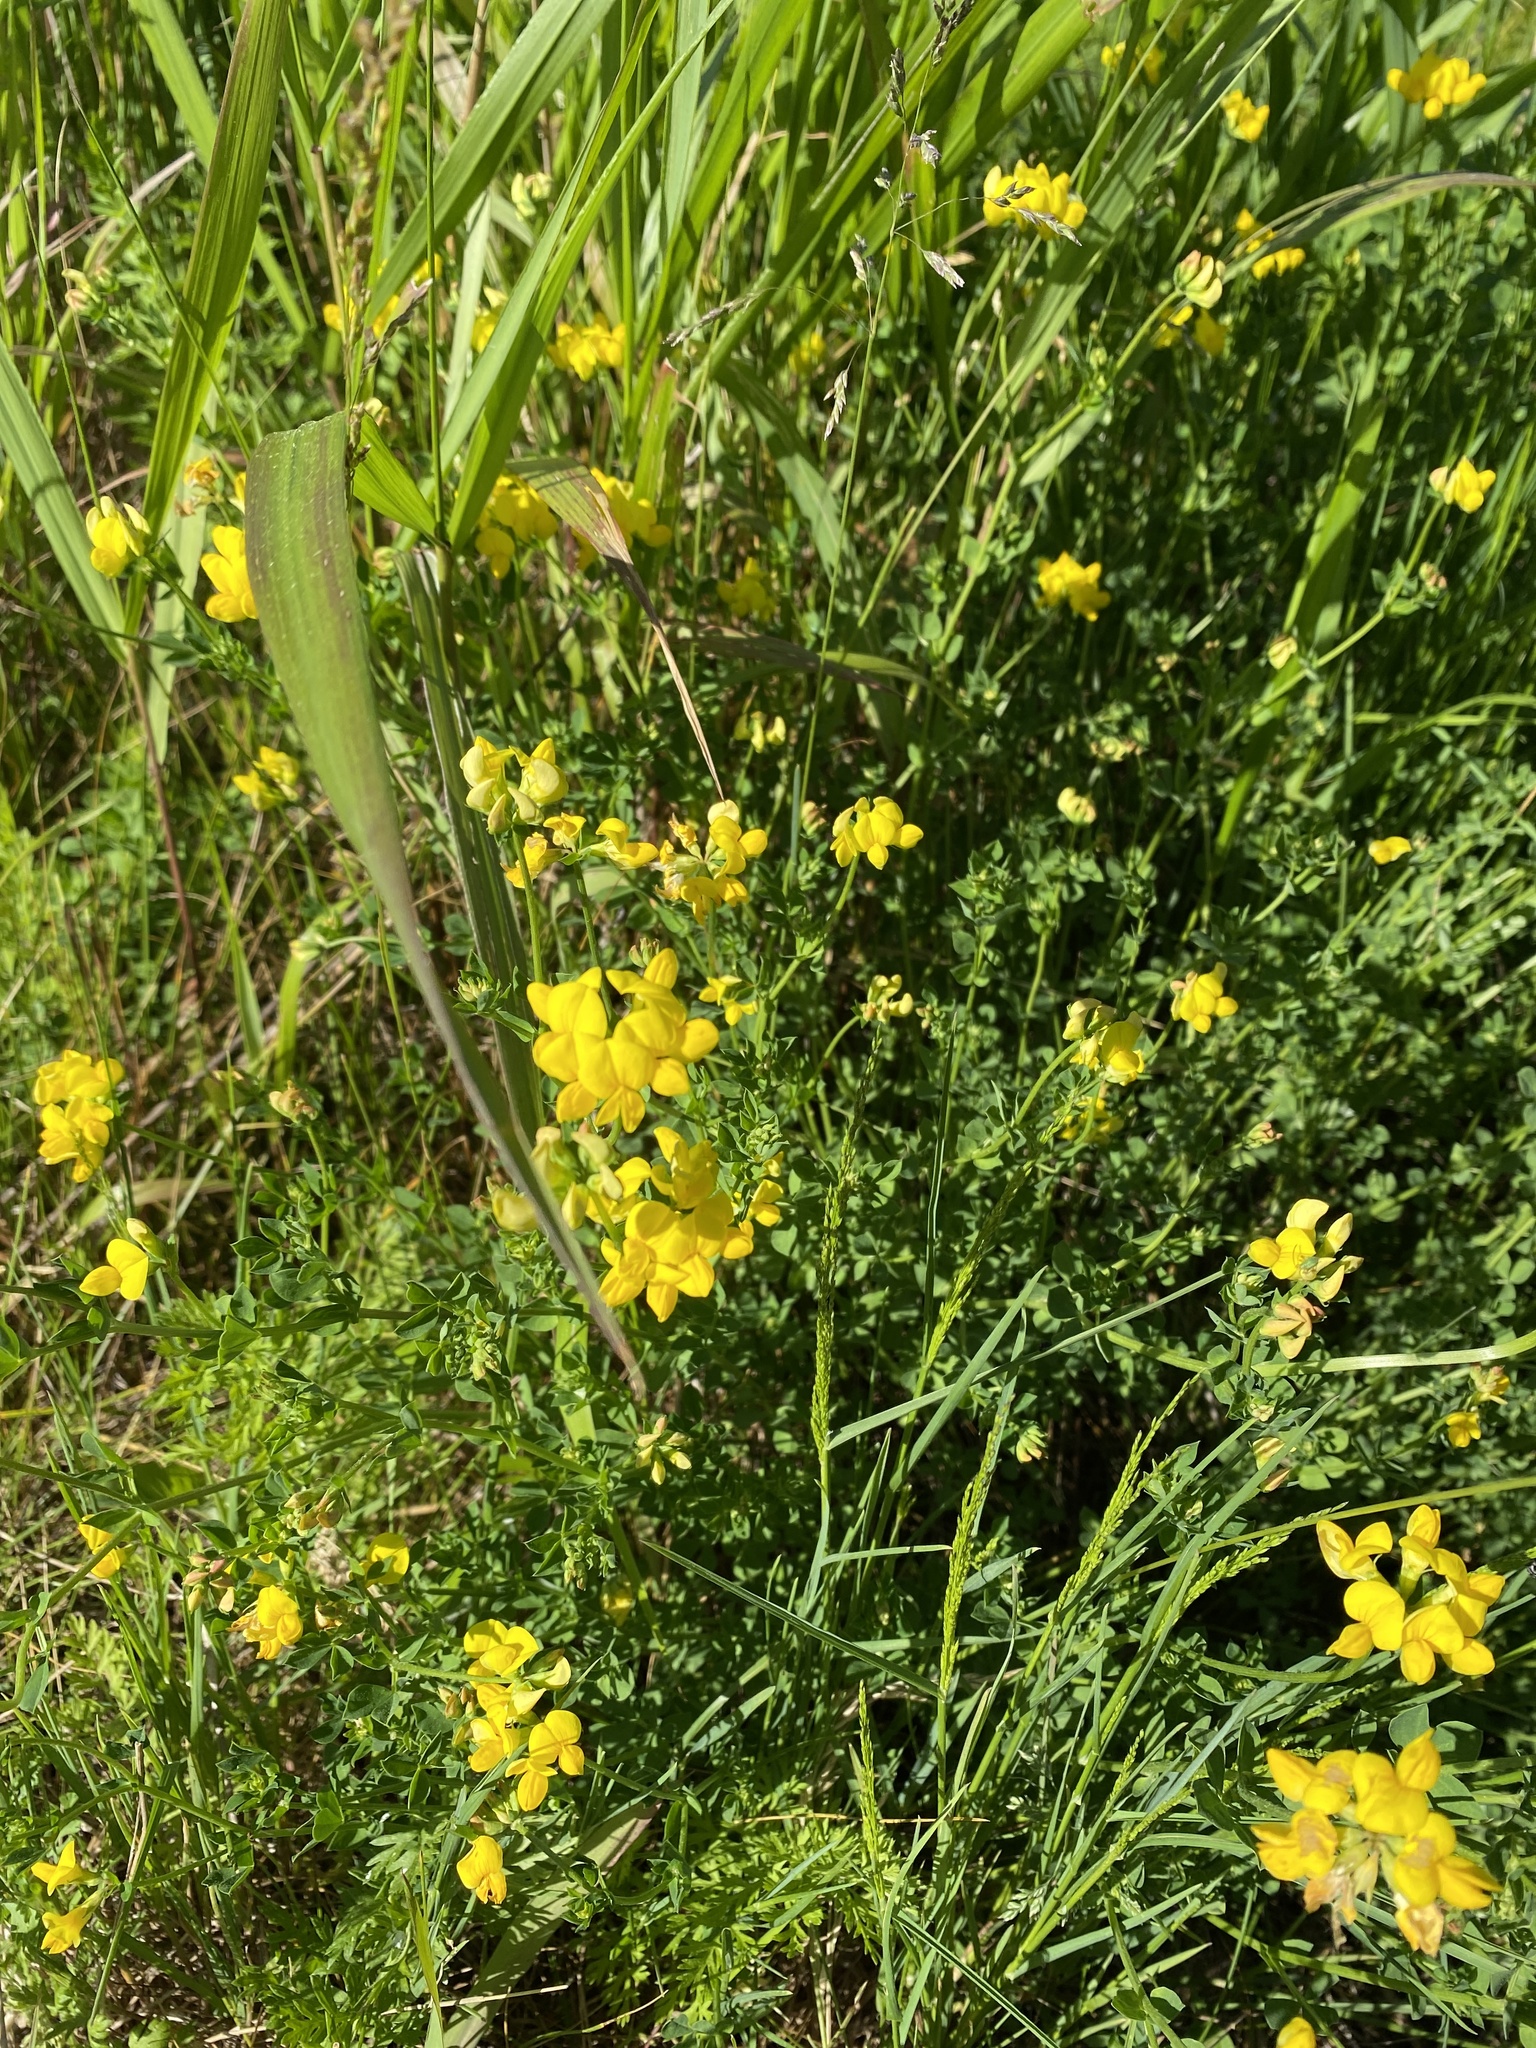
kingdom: Plantae
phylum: Tracheophyta
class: Magnoliopsida
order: Fabales
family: Fabaceae
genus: Lotus
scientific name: Lotus corniculatus
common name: Common bird's-foot-trefoil
